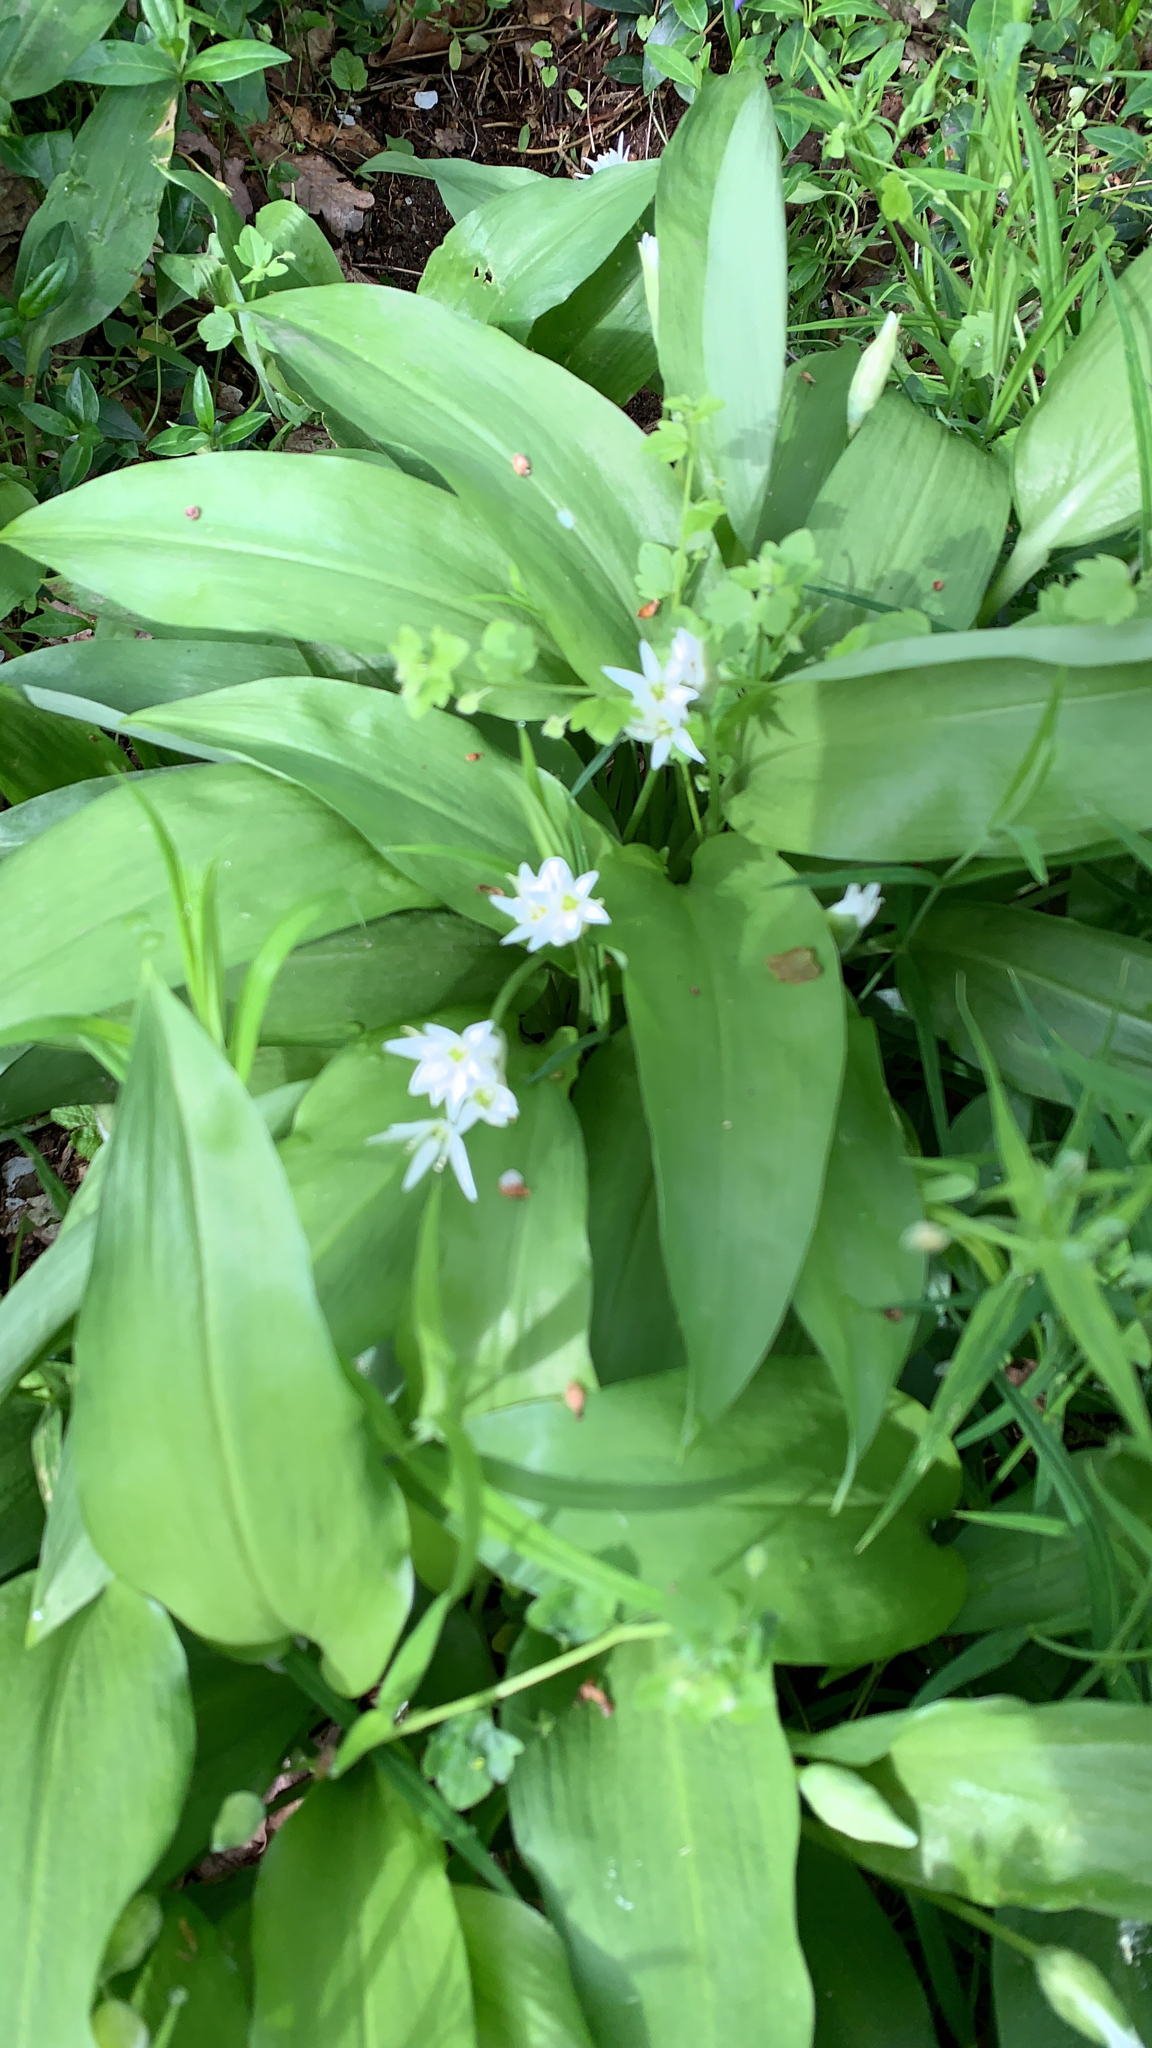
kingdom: Plantae
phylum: Tracheophyta
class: Liliopsida
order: Asparagales
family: Amaryllidaceae
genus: Allium
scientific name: Allium ursinum
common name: Ramsons
